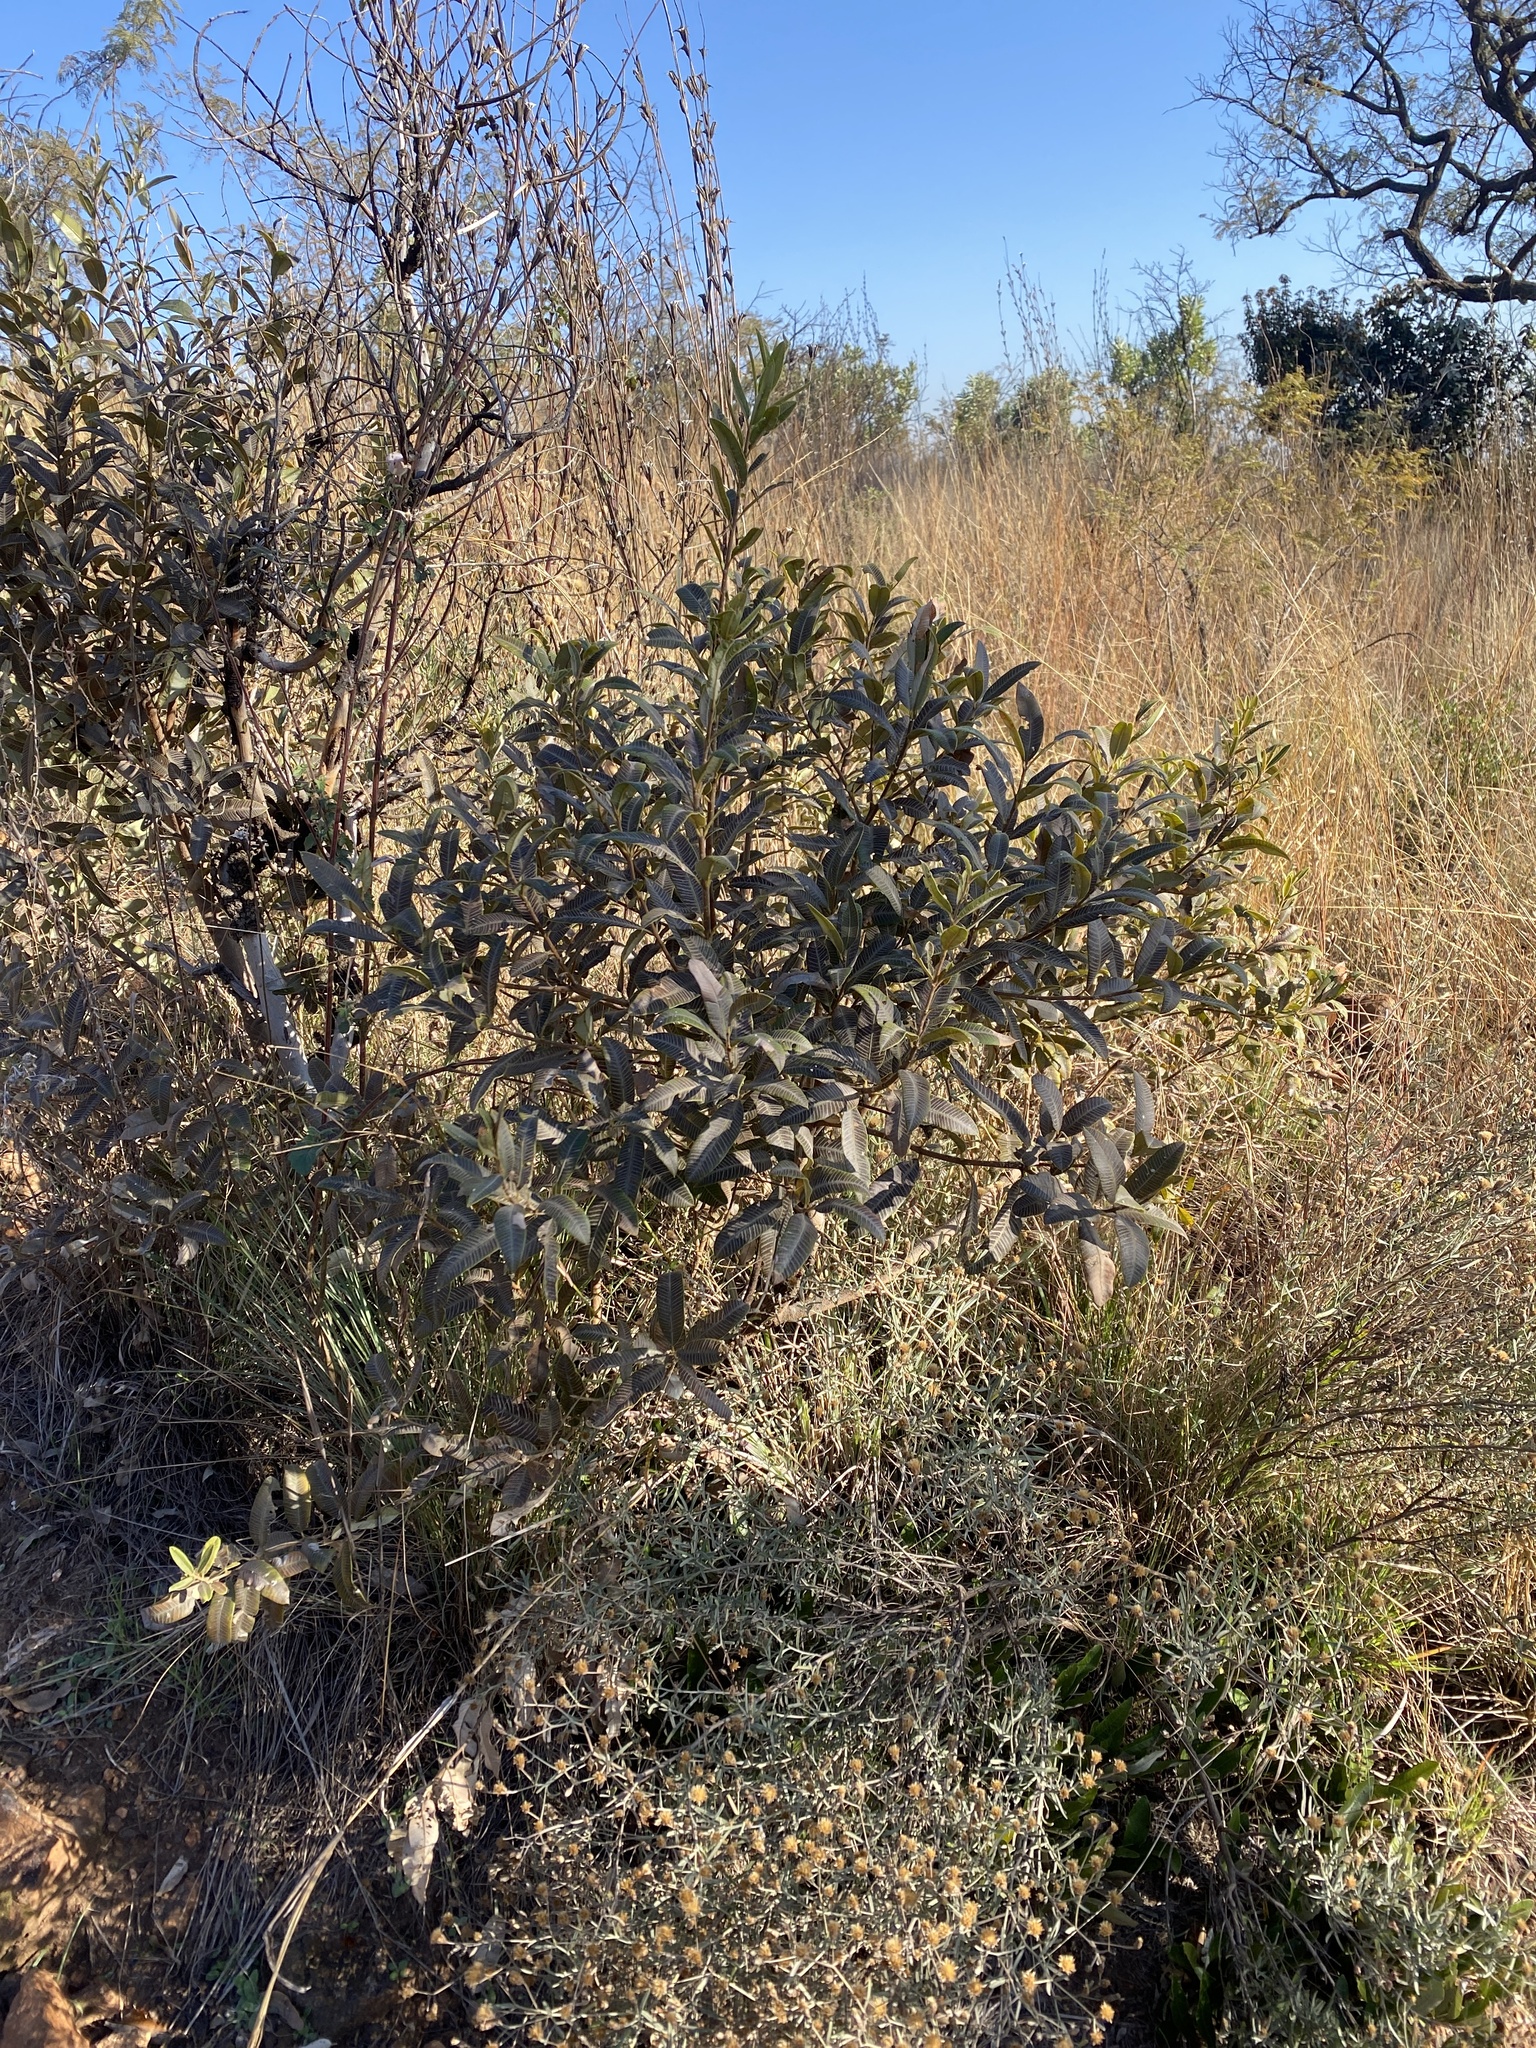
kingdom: Plantae
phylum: Tracheophyta
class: Magnoliopsida
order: Sapindales
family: Anacardiaceae
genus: Ozoroa
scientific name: Ozoroa paniculosa
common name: Bushveld ozoroa
